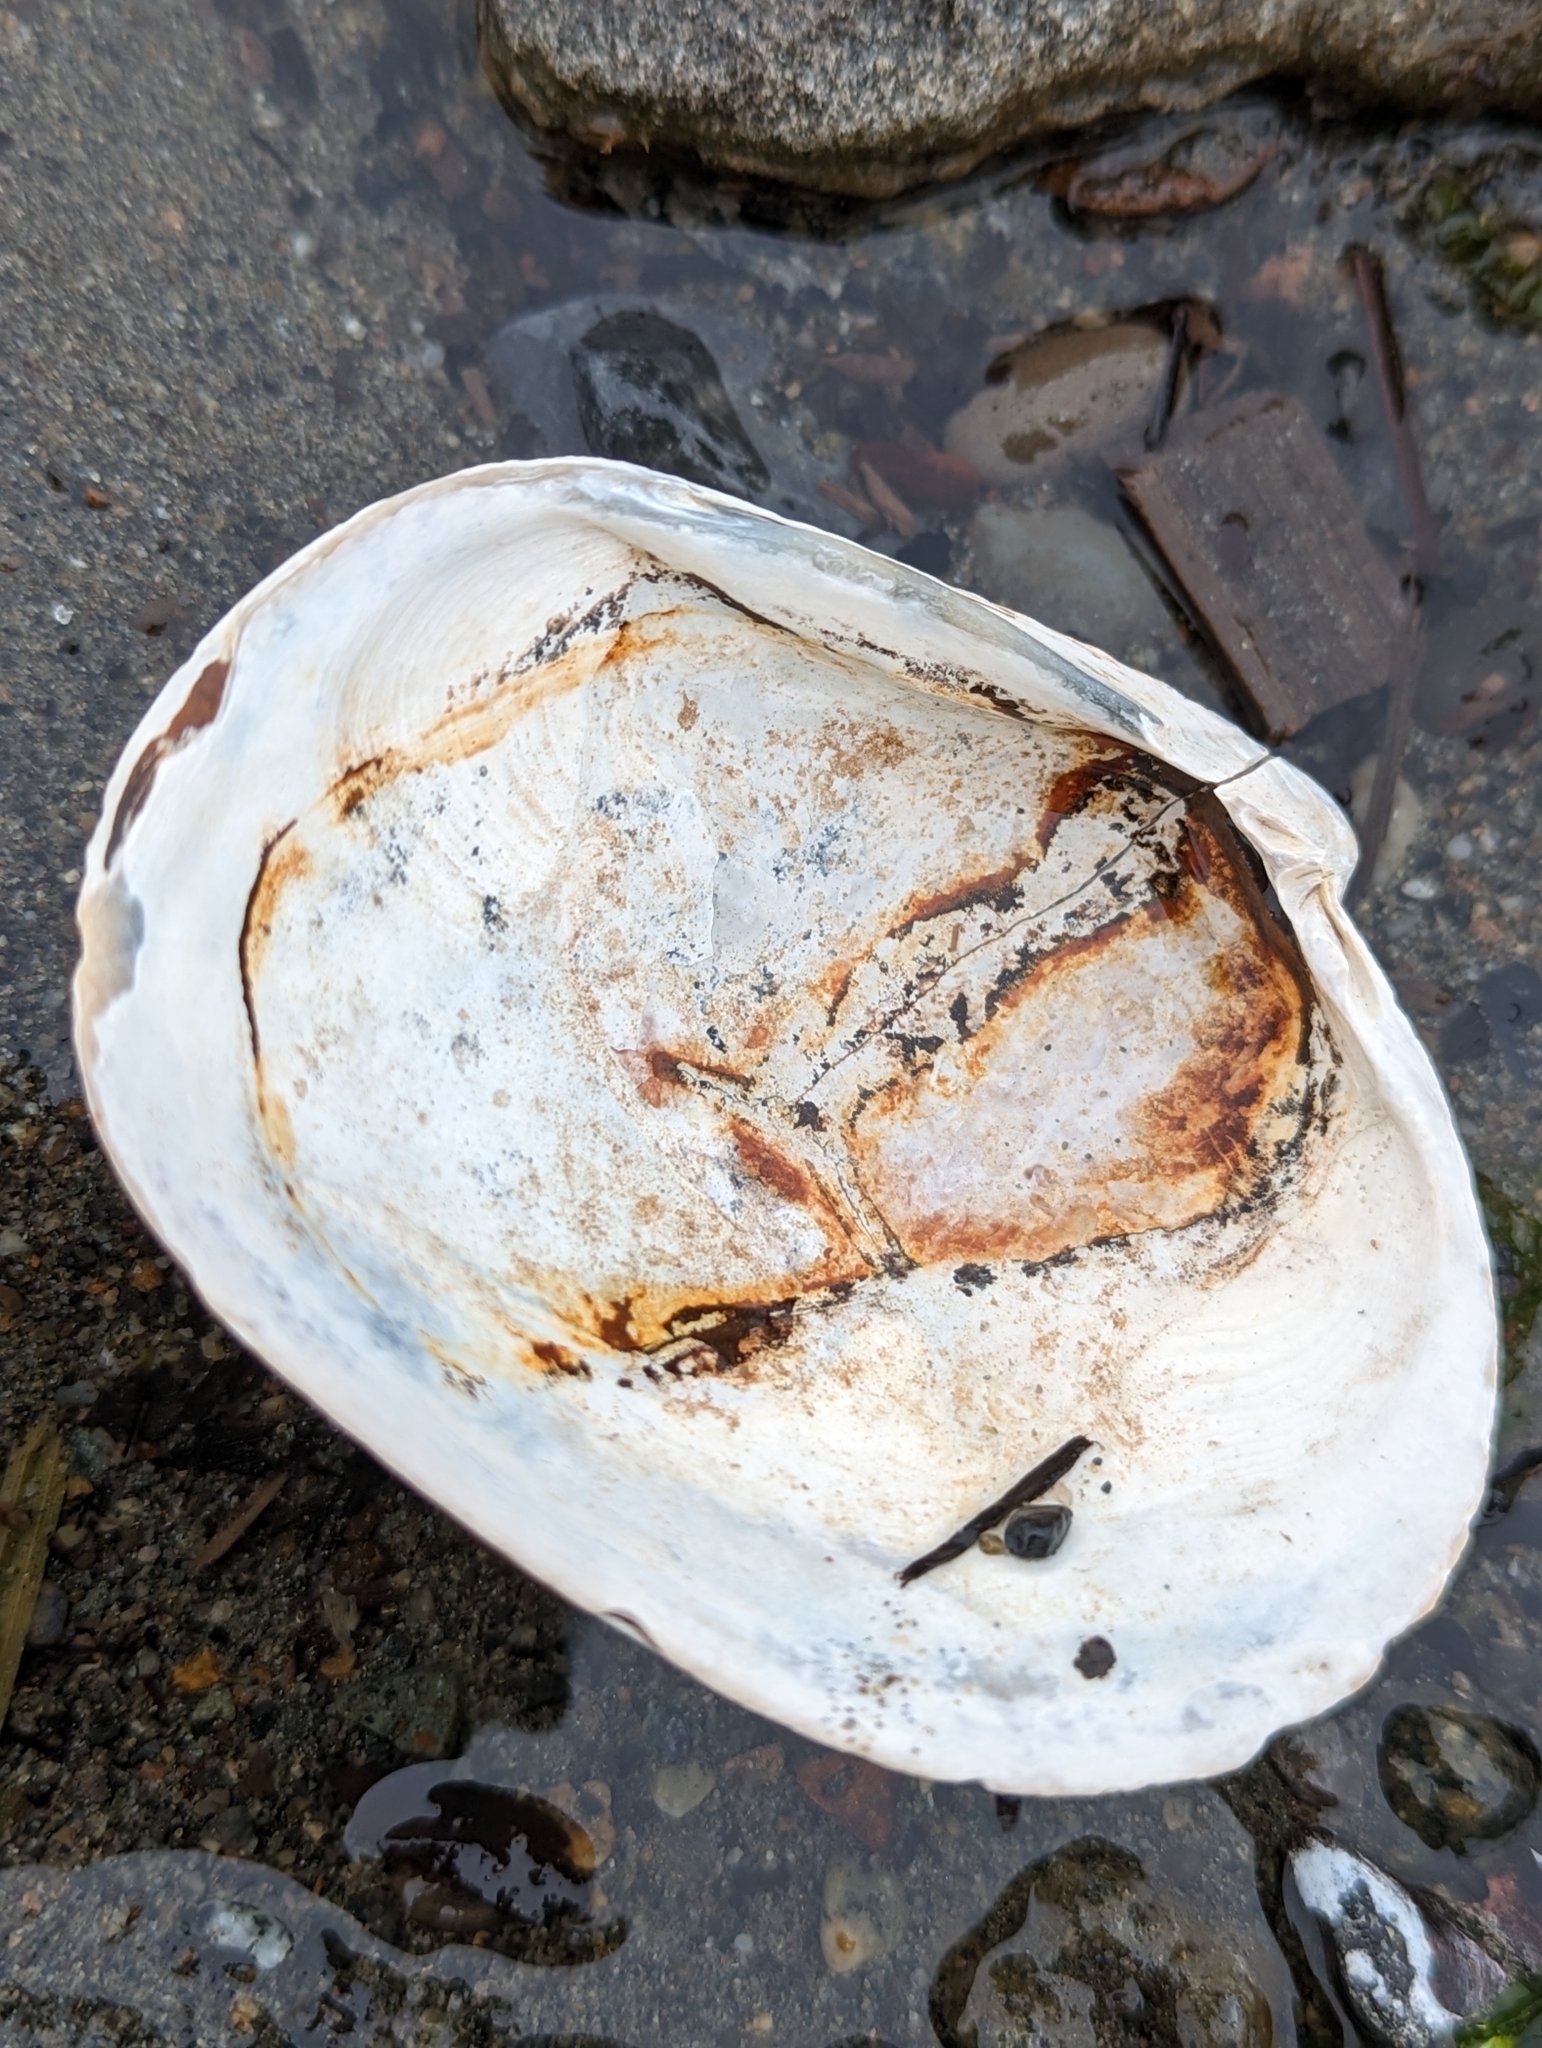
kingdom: Animalia
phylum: Mollusca
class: Bivalvia
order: Venerida
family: Veneridae
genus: Saxidomus
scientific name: Saxidomus gigantea
